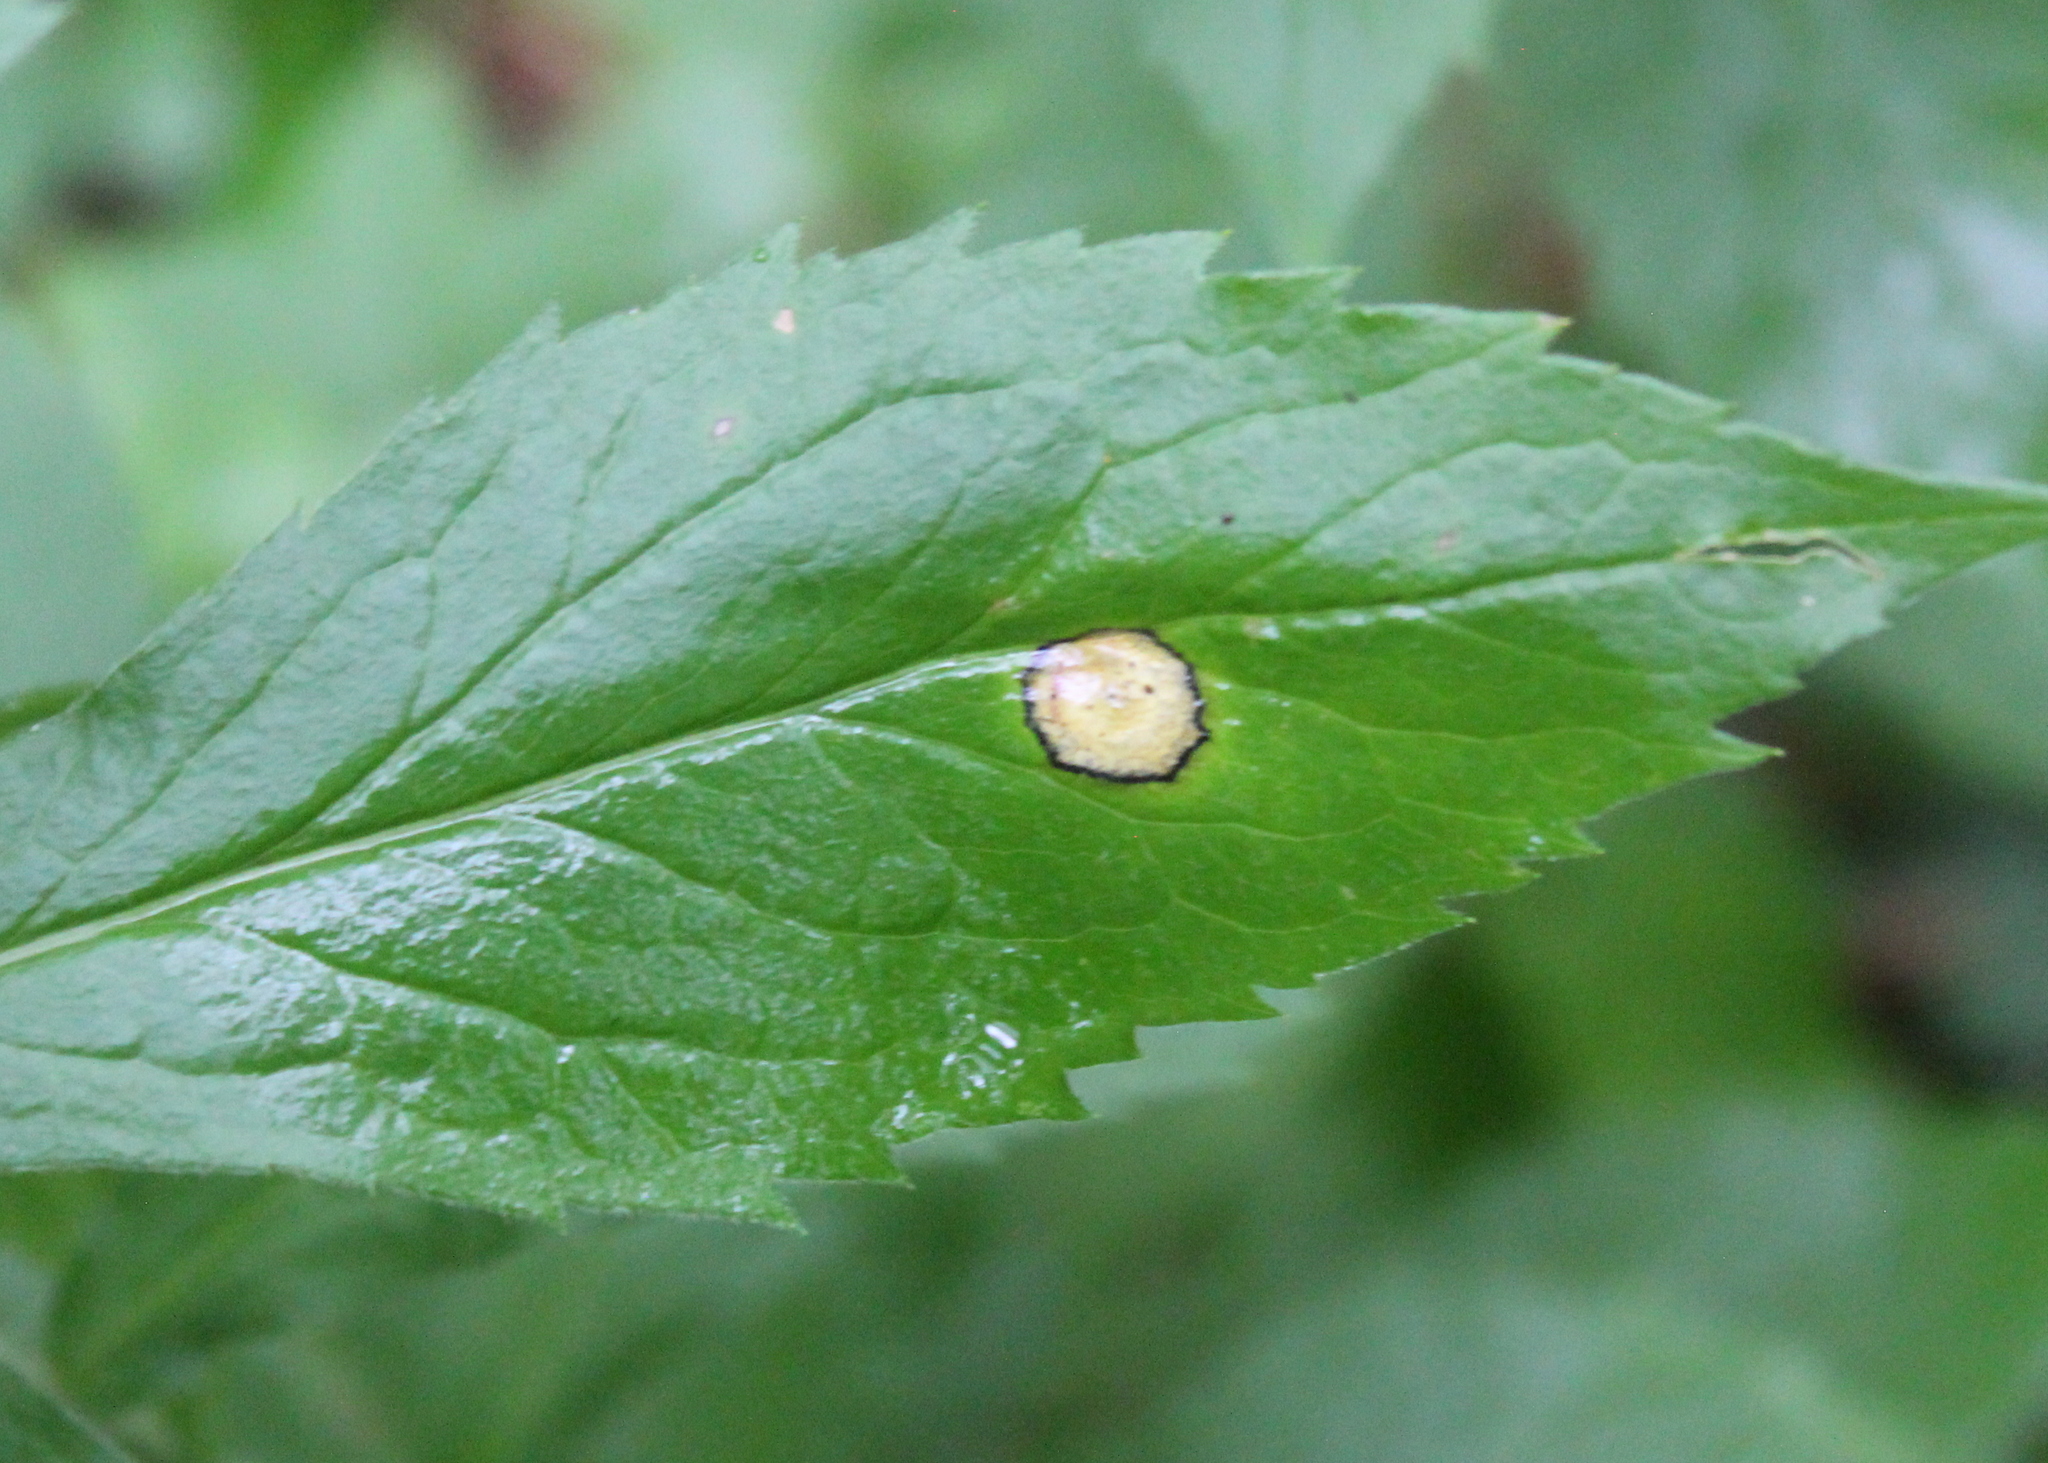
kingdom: Animalia
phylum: Arthropoda
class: Insecta
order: Diptera
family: Cecidomyiidae
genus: Asteromyia
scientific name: Asteromyia carbonifera
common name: Carbonifera goldenrod gall midge
